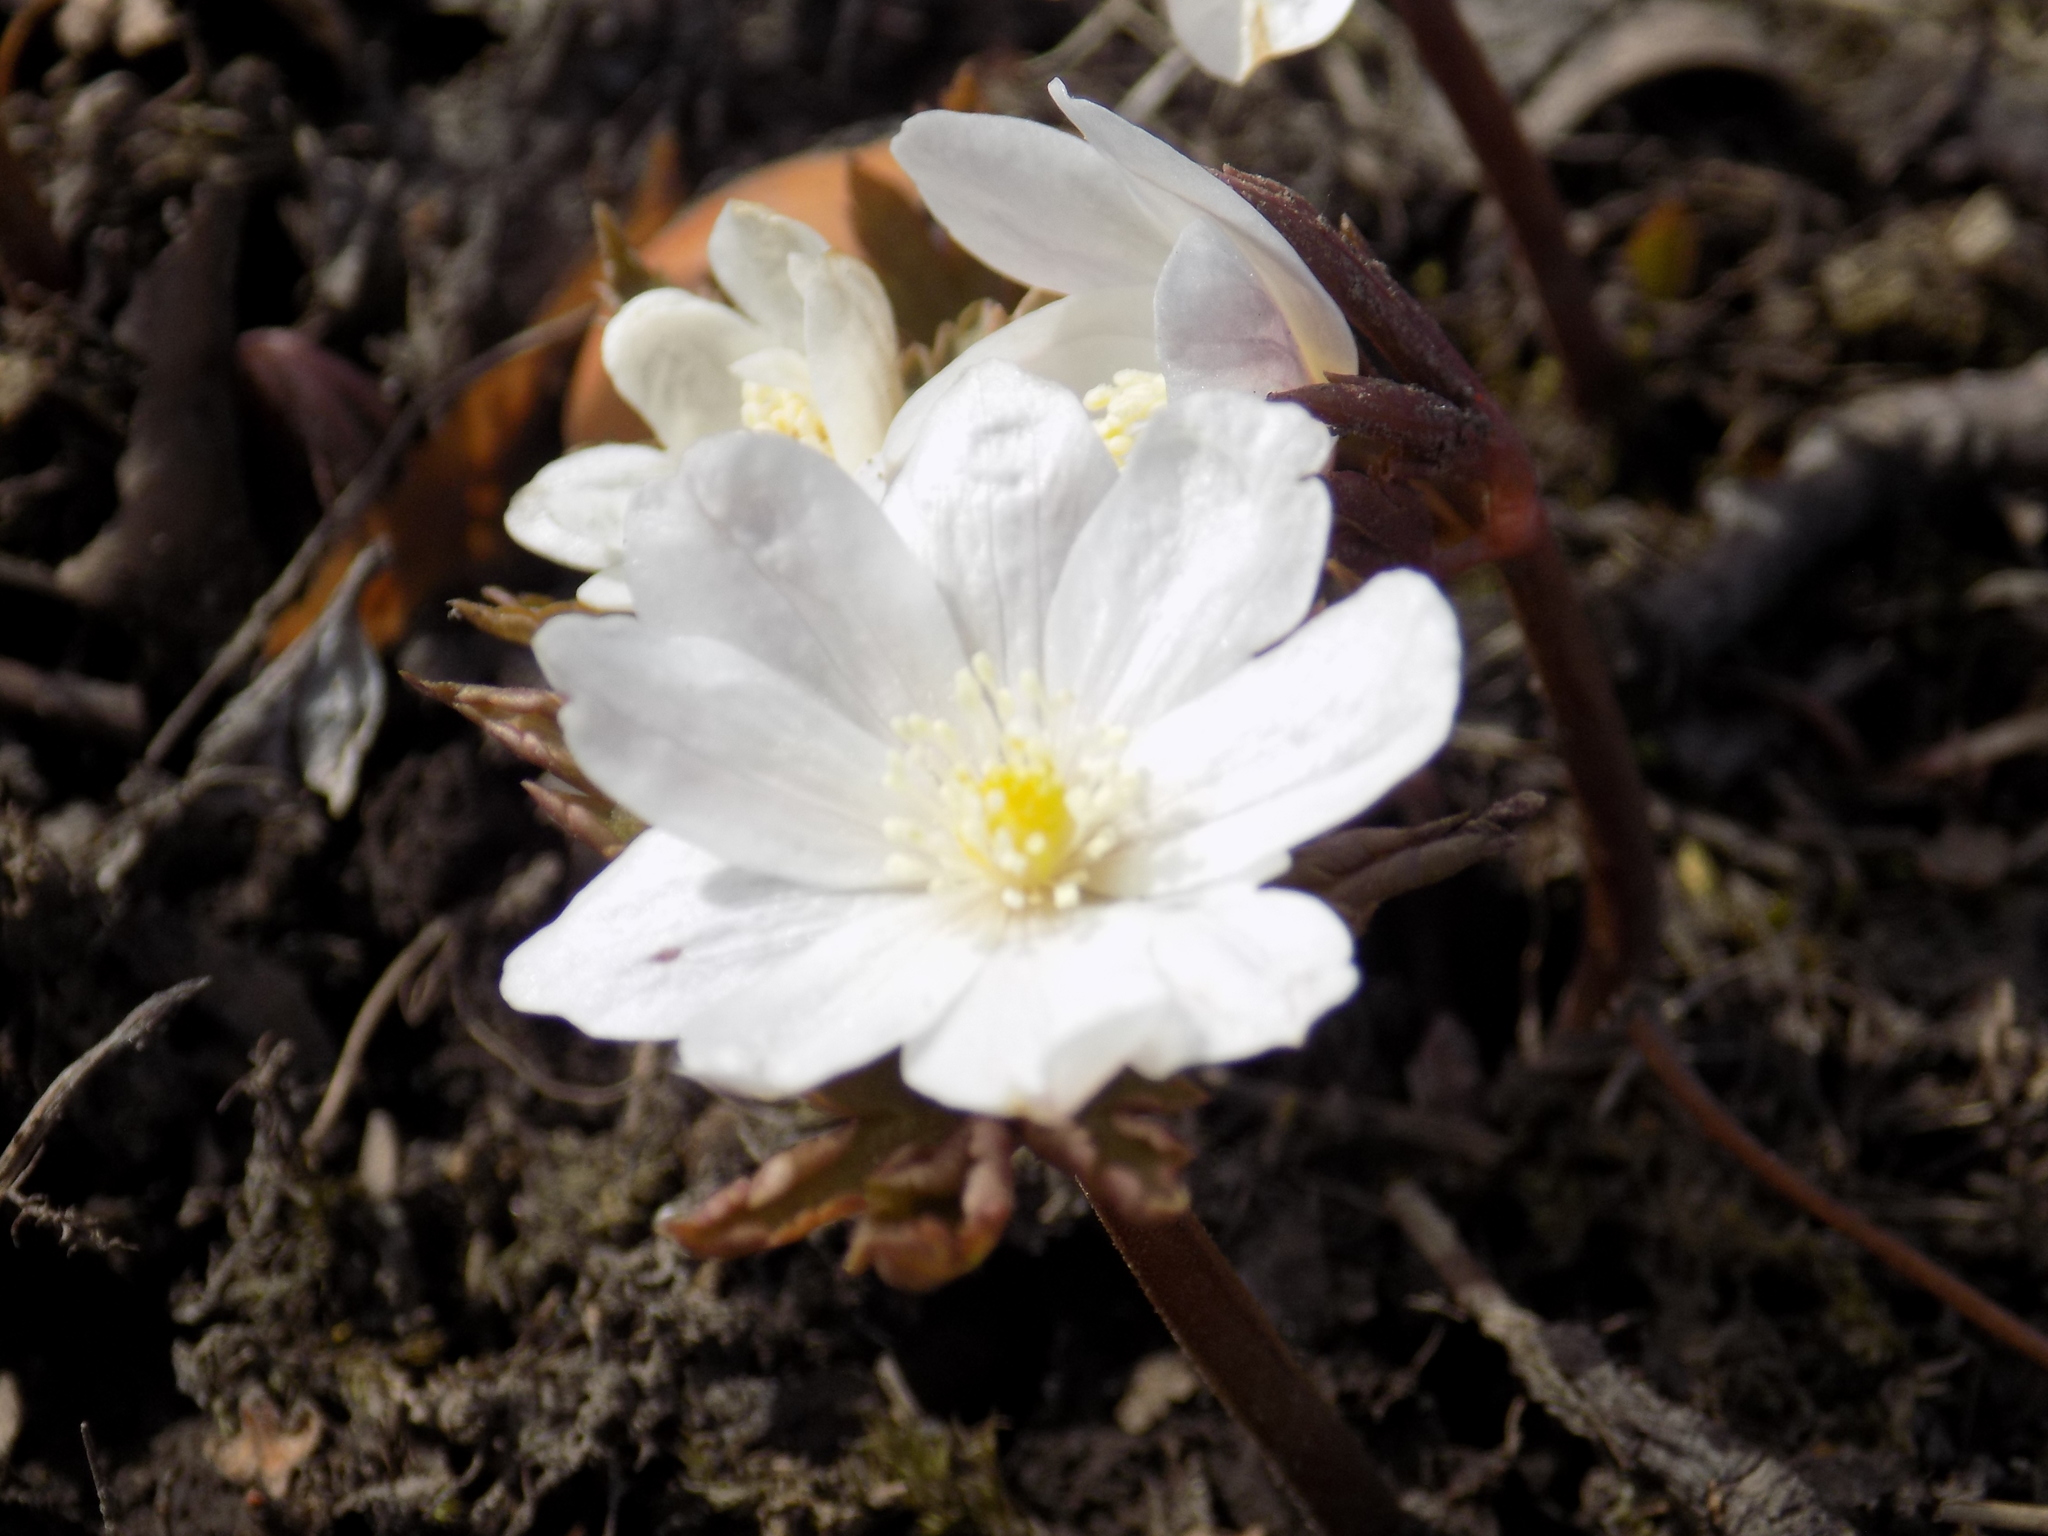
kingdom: Plantae
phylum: Tracheophyta
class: Magnoliopsida
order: Ranunculales
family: Ranunculaceae
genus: Anemone
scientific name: Anemone altaica
